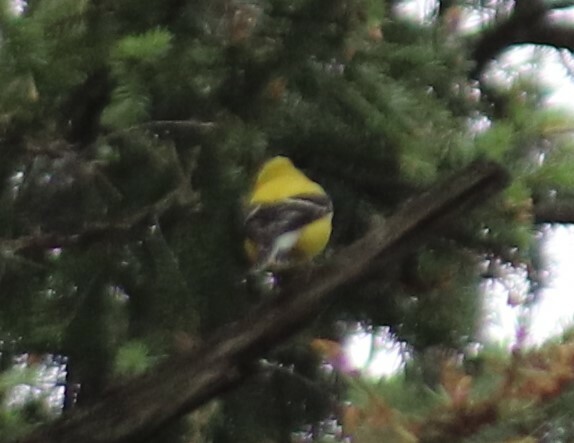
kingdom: Animalia
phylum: Chordata
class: Aves
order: Passeriformes
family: Fringillidae
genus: Spinus
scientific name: Spinus tristis
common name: American goldfinch
